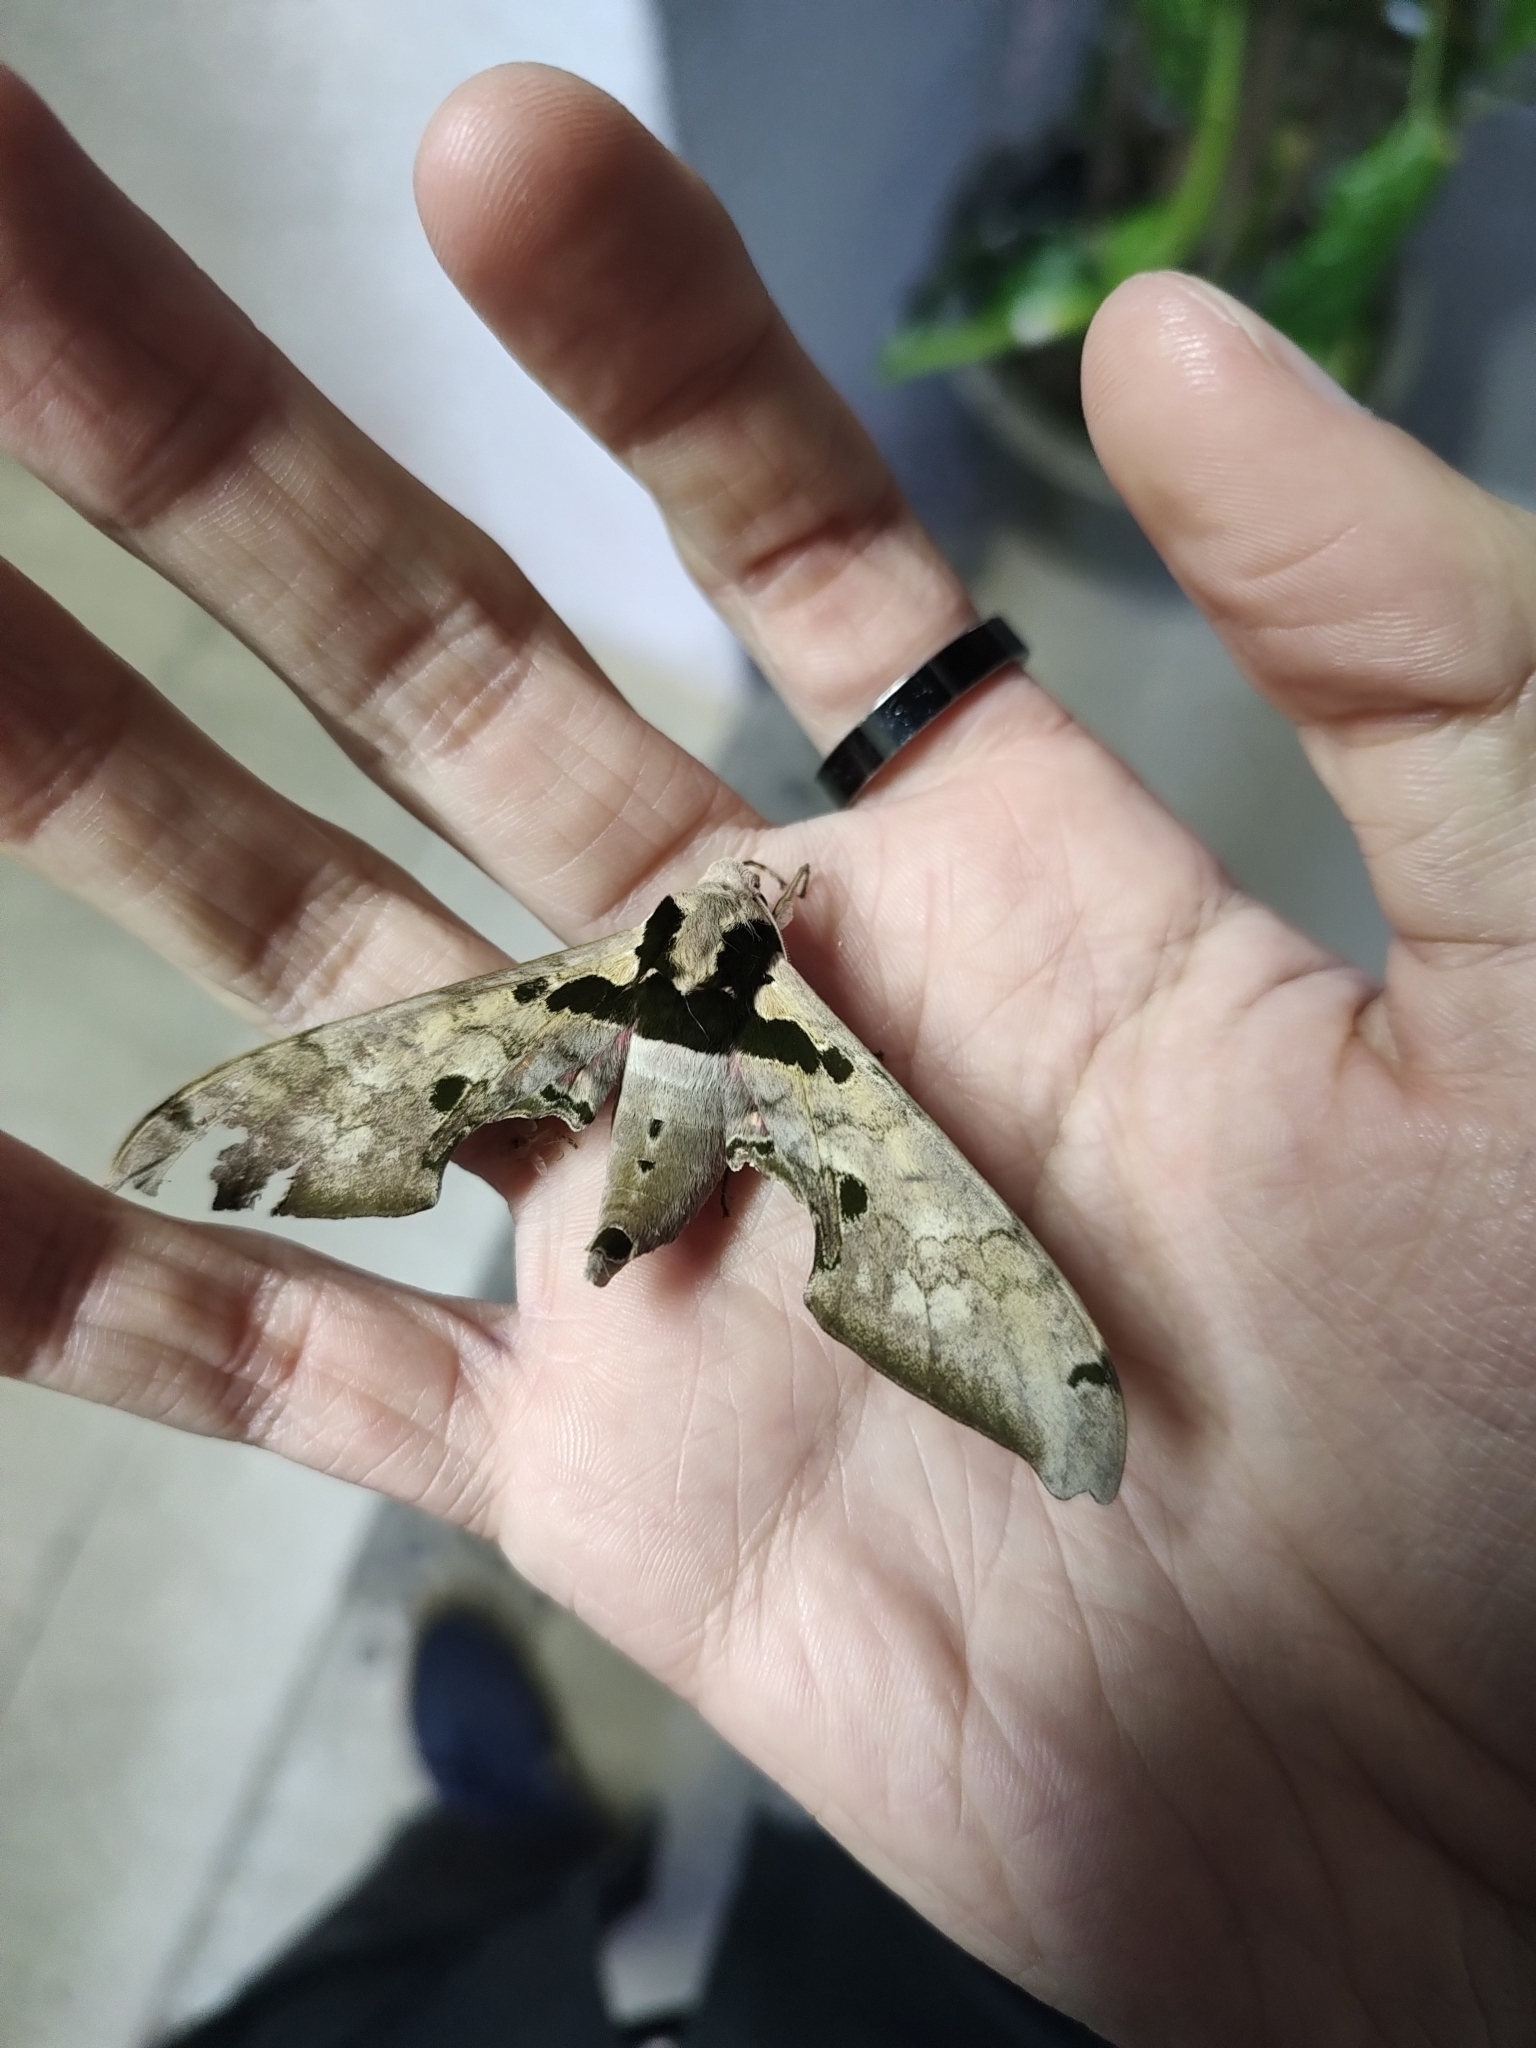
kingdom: Animalia
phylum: Arthropoda
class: Insecta
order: Lepidoptera
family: Sphingidae
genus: Adhemarius
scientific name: Adhemarius gannascus
